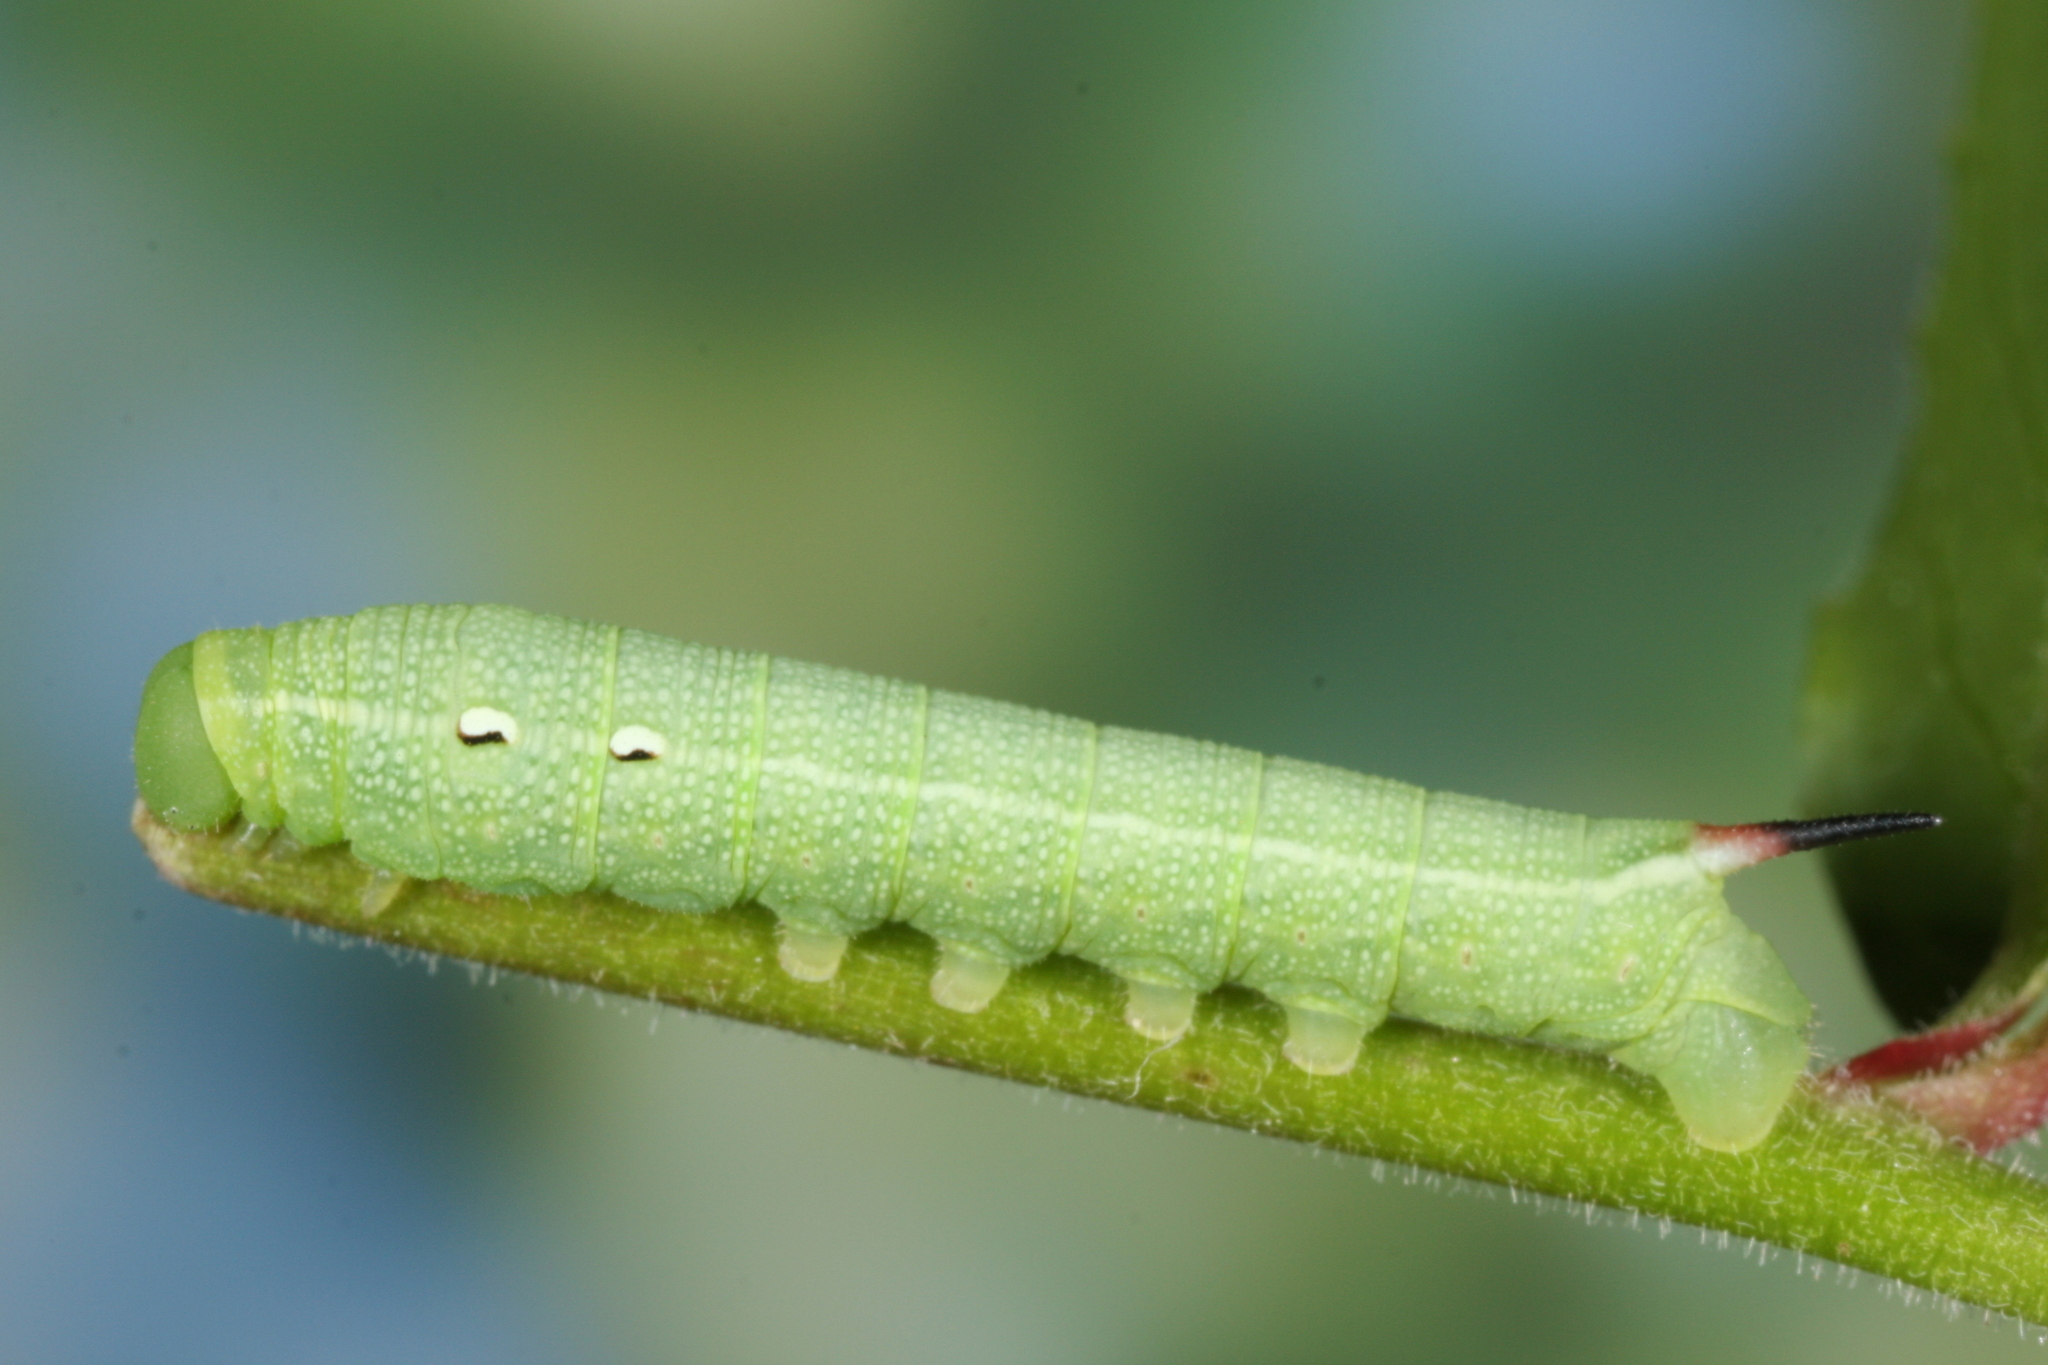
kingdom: Animalia
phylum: Arthropoda
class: Insecta
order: Lepidoptera
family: Sphingidae
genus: Deilephila
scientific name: Deilephila elpenor
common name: Elephant hawk-moth
